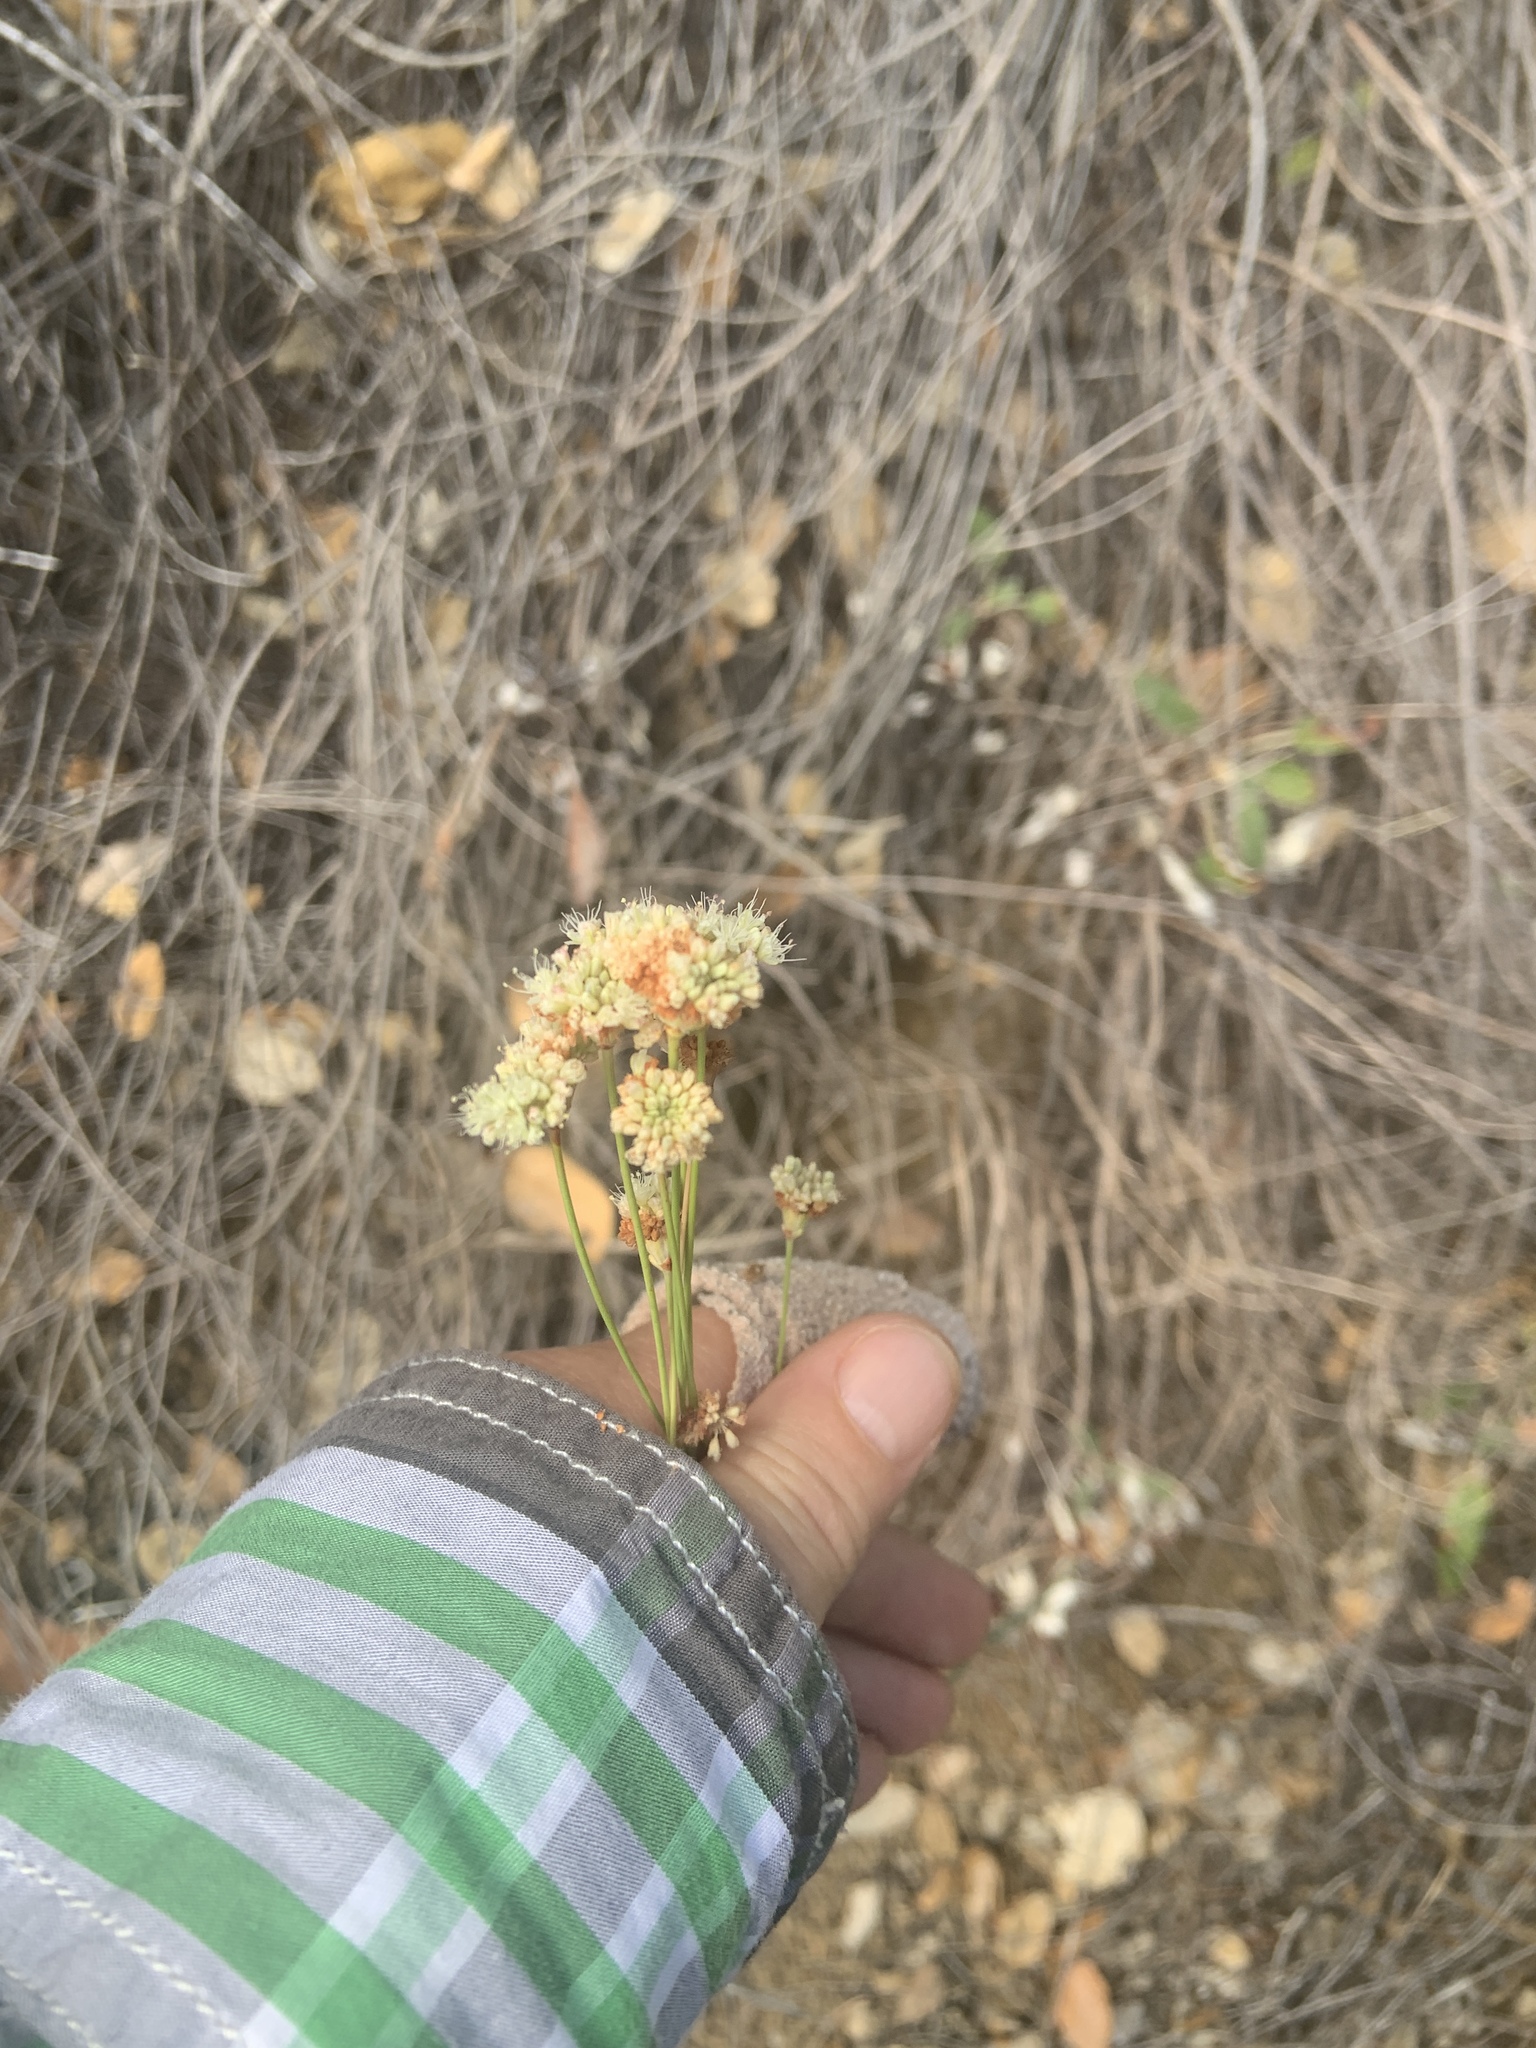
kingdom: Plantae
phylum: Tracheophyta
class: Magnoliopsida
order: Caryophyllales
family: Polygonaceae
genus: Eriogonum
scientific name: Eriogonum nudum
